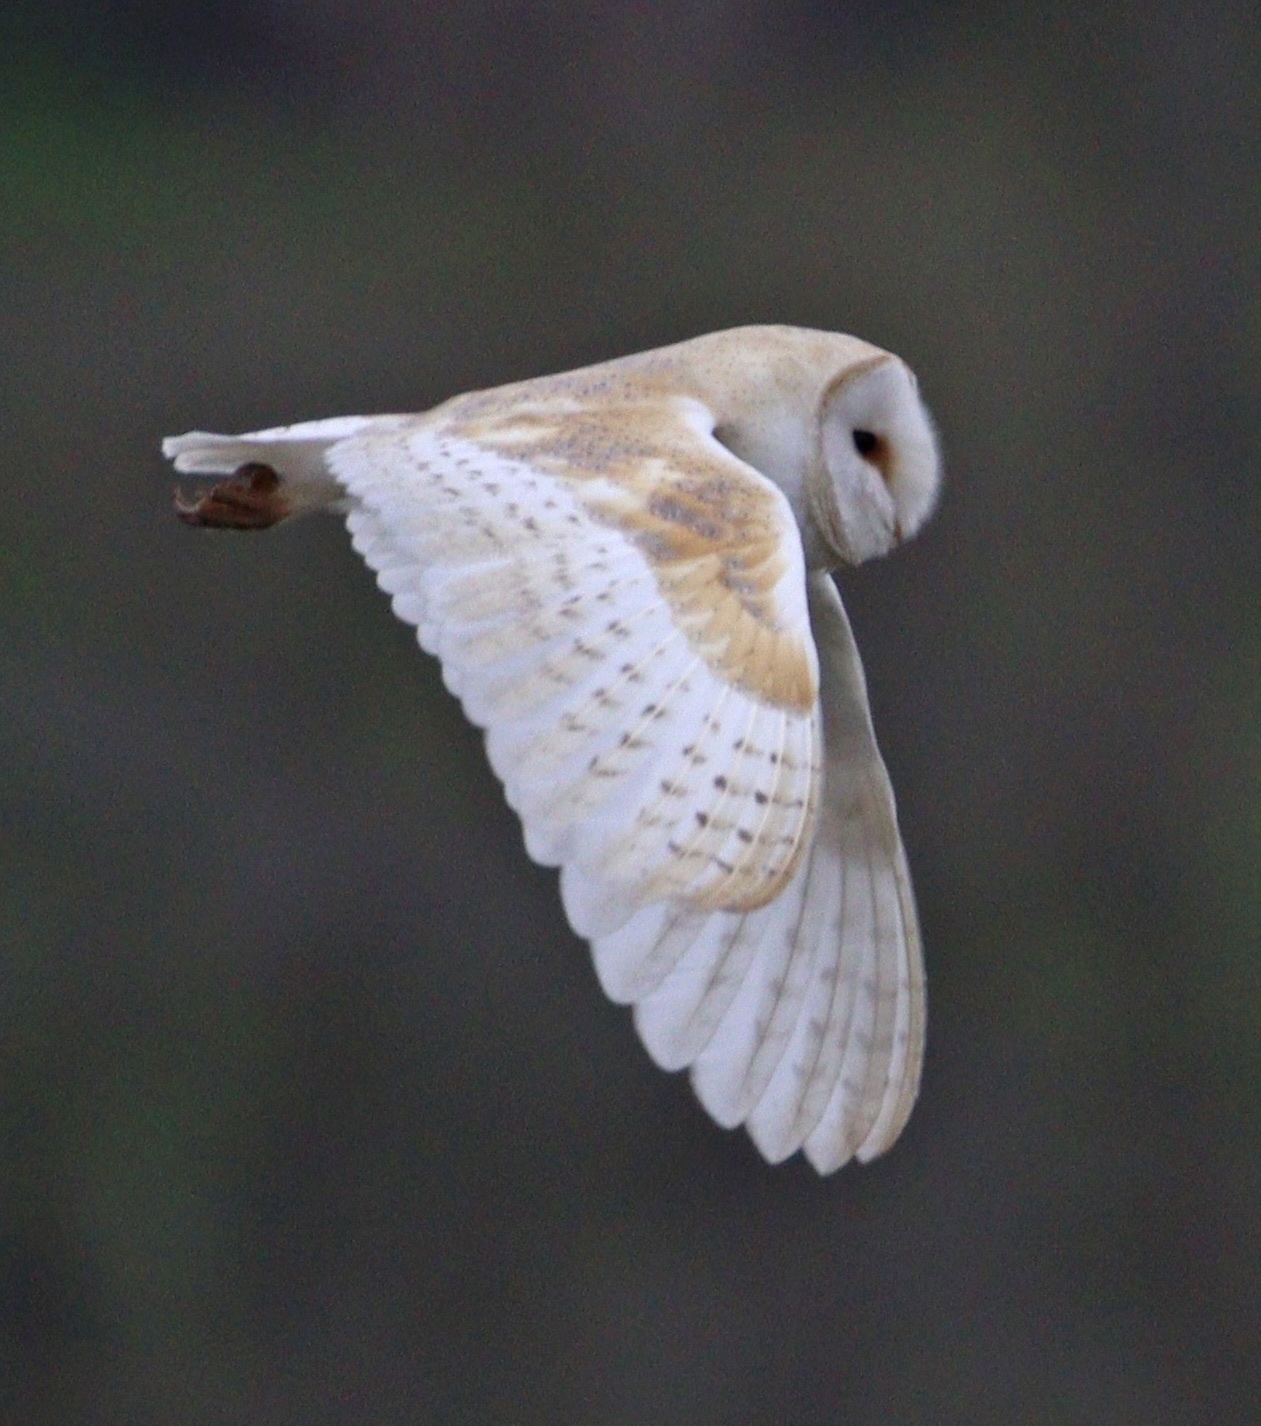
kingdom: Animalia
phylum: Chordata
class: Aves
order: Strigiformes
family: Tytonidae
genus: Tyto
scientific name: Tyto alba
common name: Barn owl
